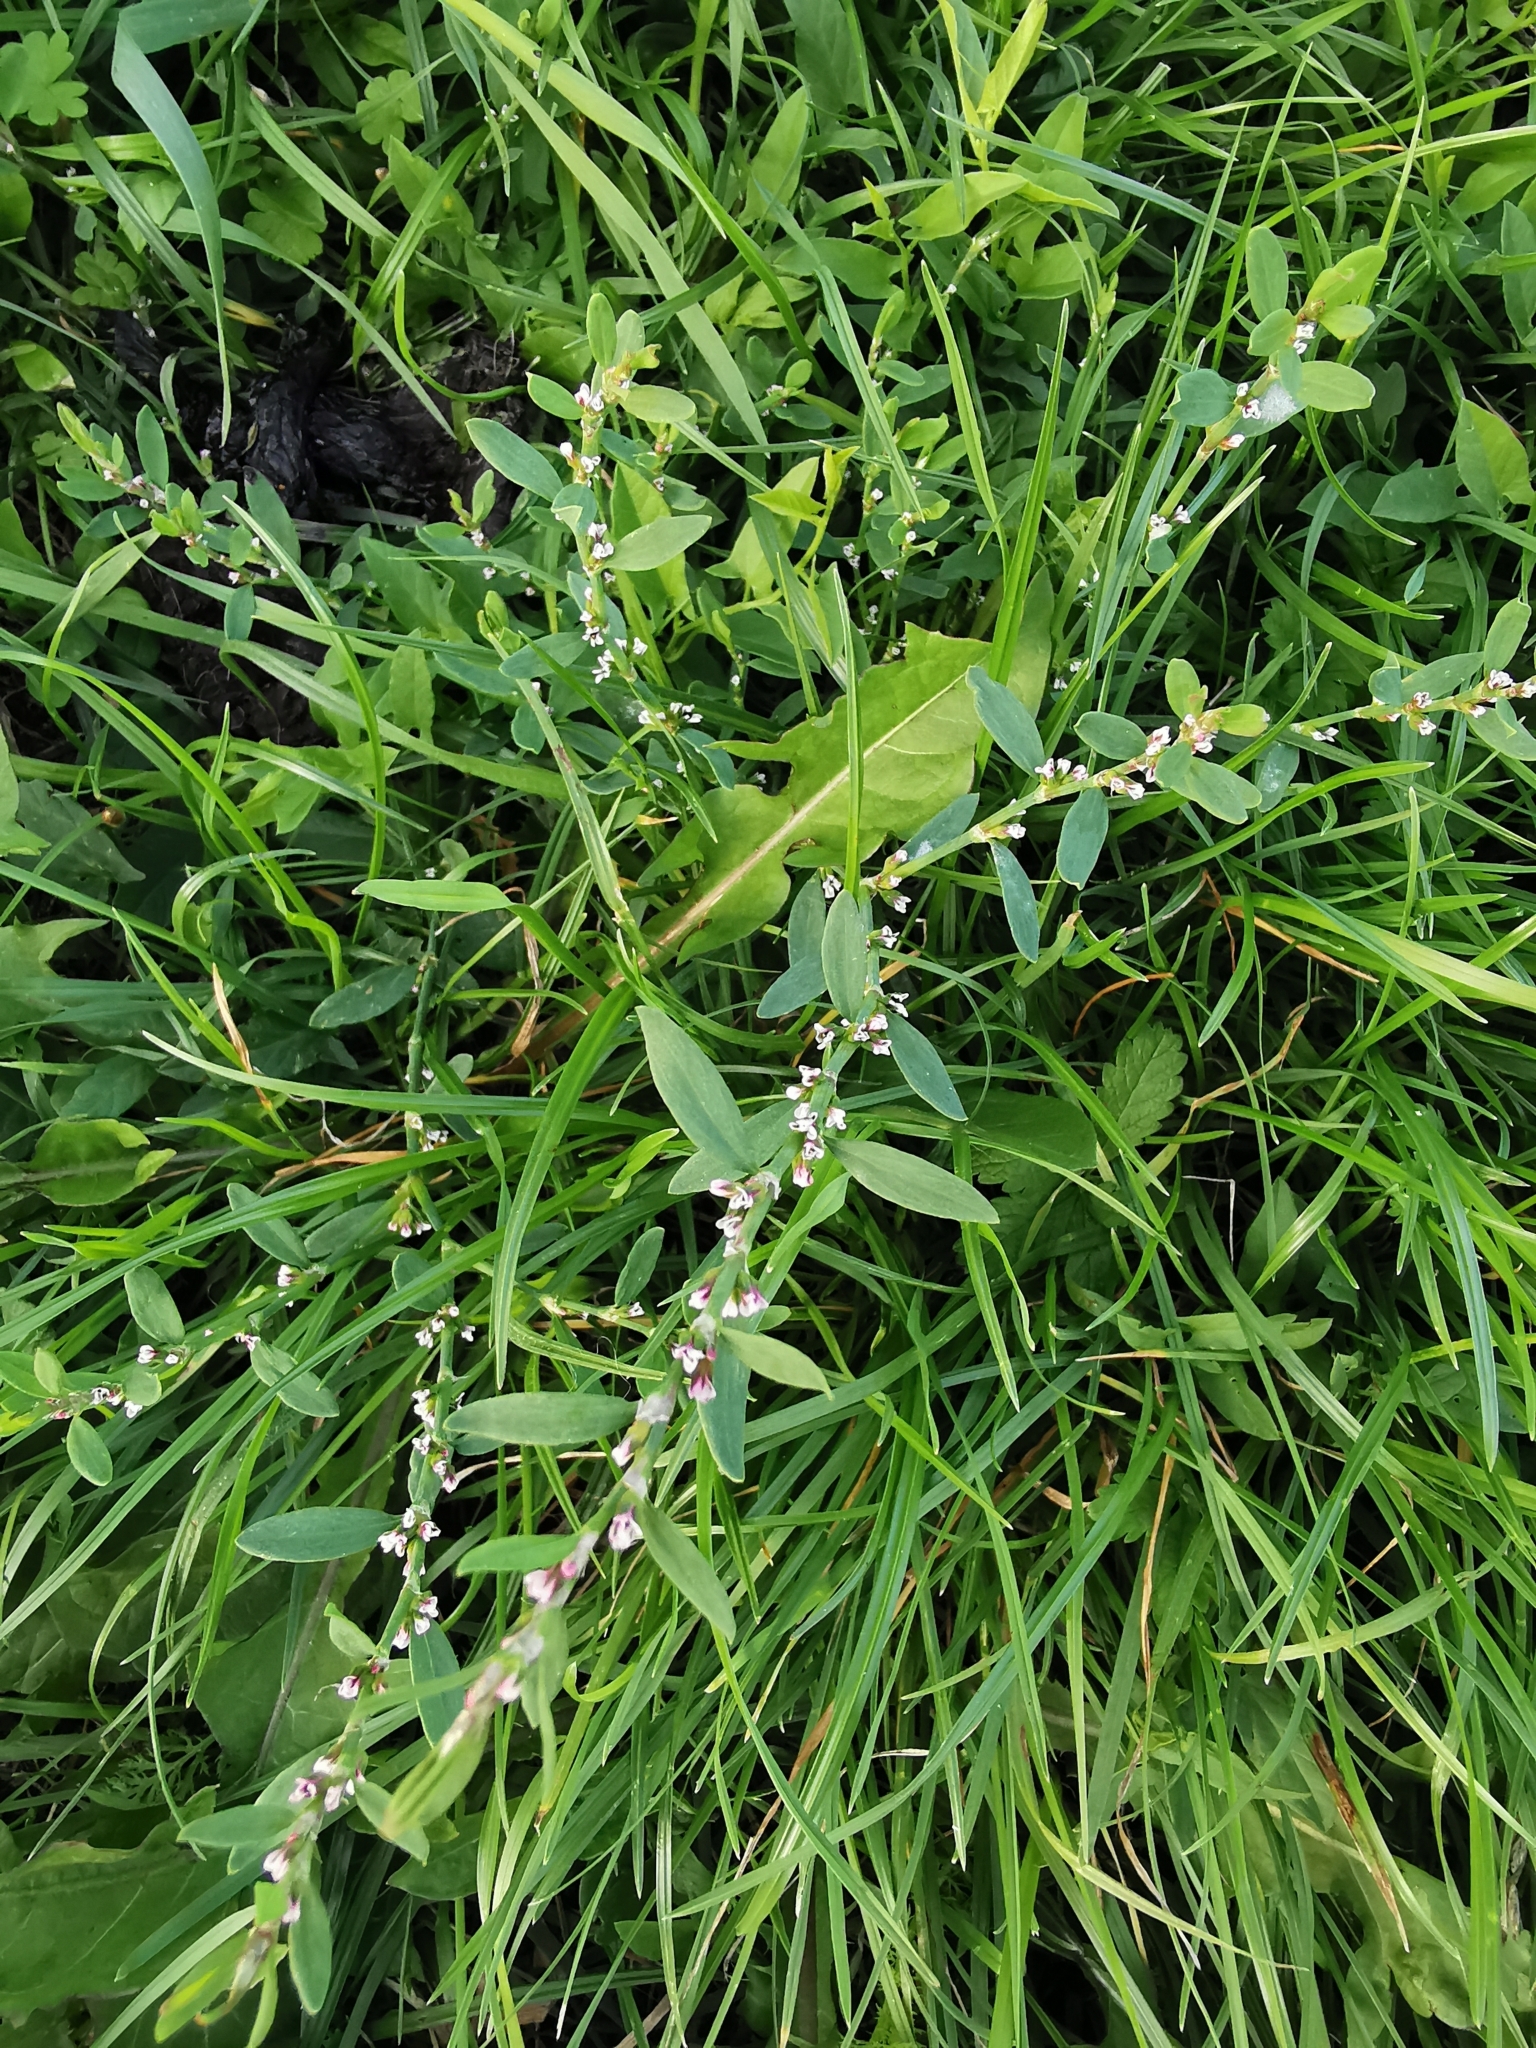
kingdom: Plantae
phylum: Tracheophyta
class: Magnoliopsida
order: Caryophyllales
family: Polygonaceae
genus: Polygonum
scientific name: Polygonum aviculare
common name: Prostrate knotweed
